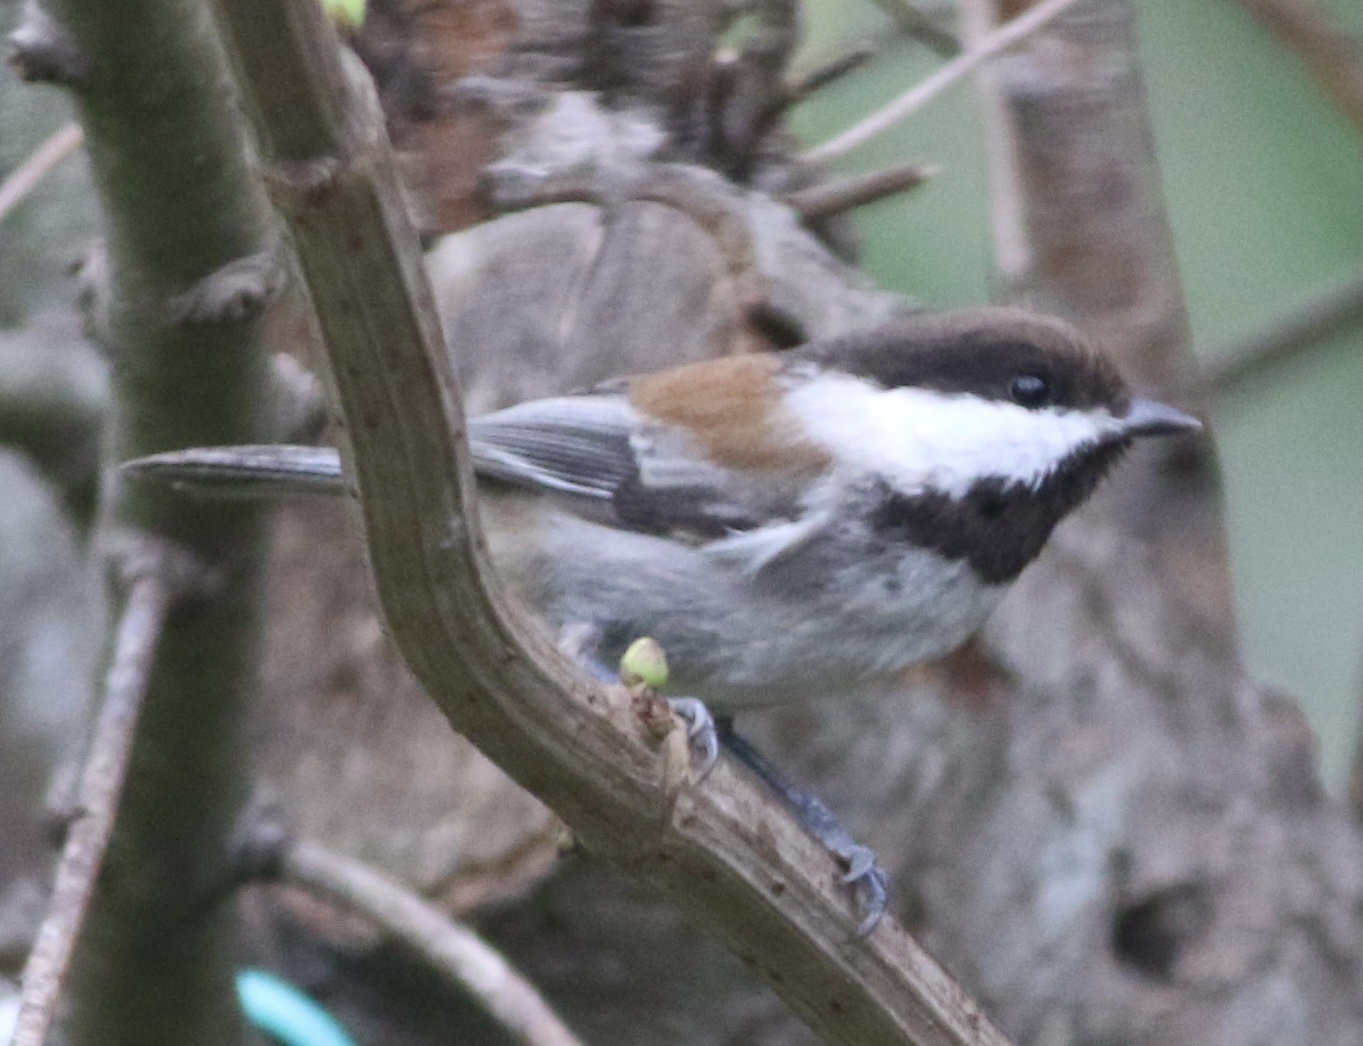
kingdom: Animalia
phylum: Chordata
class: Aves
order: Passeriformes
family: Paridae
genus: Poecile
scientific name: Poecile rufescens
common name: Chestnut-backed chickadee
